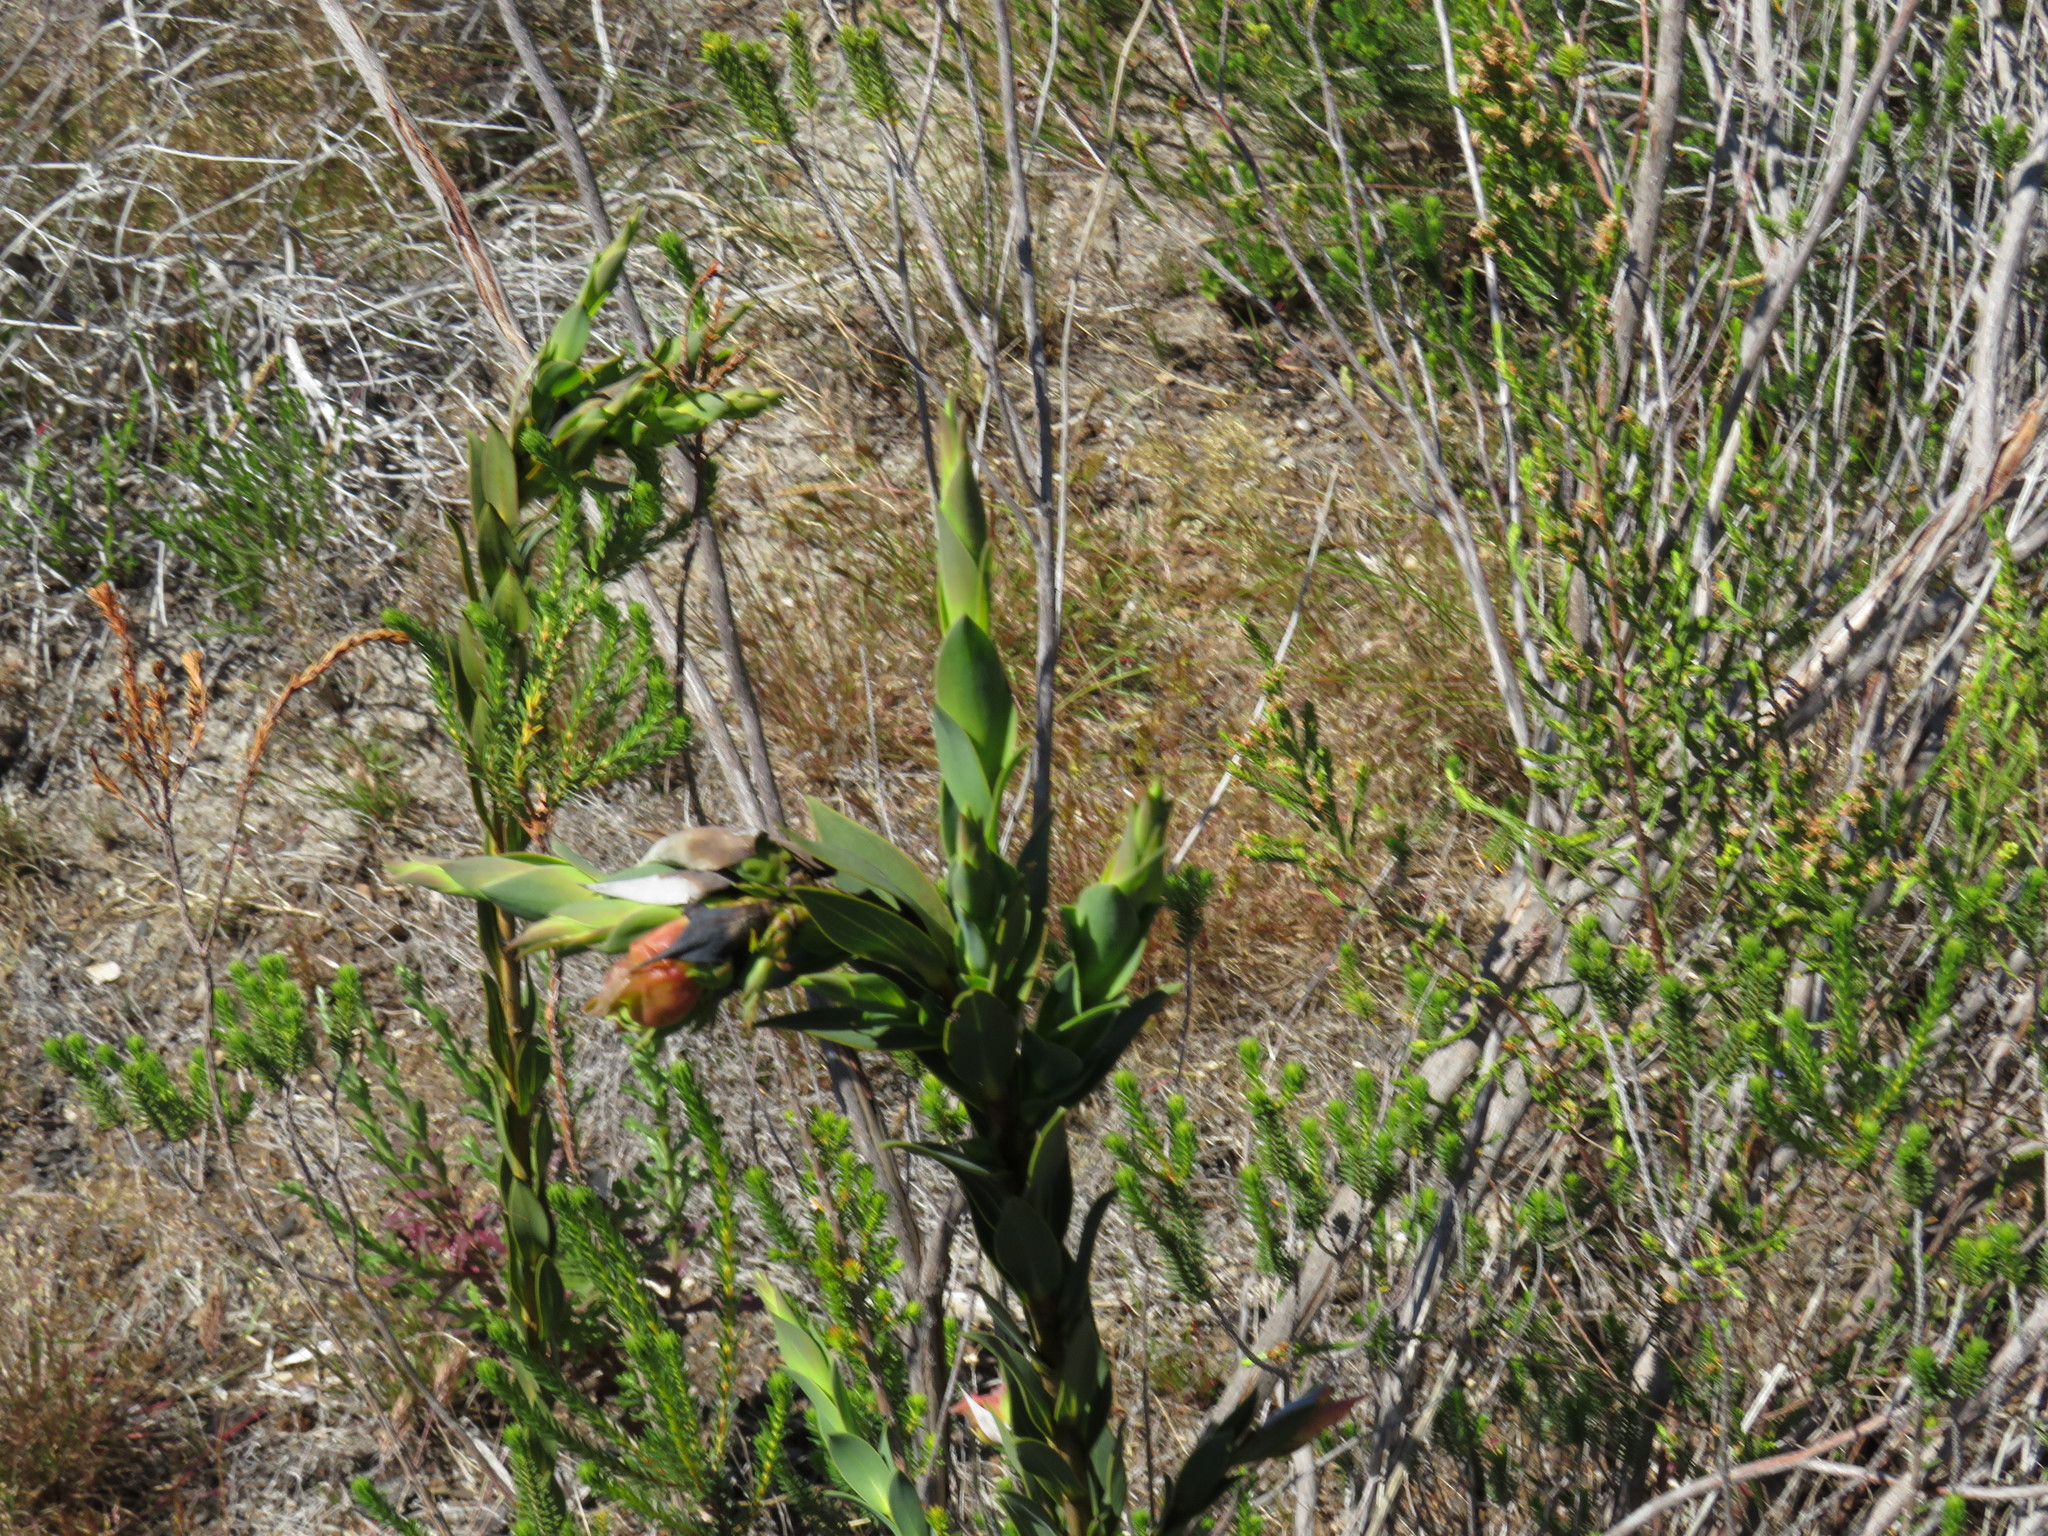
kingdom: Plantae
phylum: Tracheophyta
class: Magnoliopsida
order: Fabales
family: Fabaceae
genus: Liparia
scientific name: Liparia splendens
